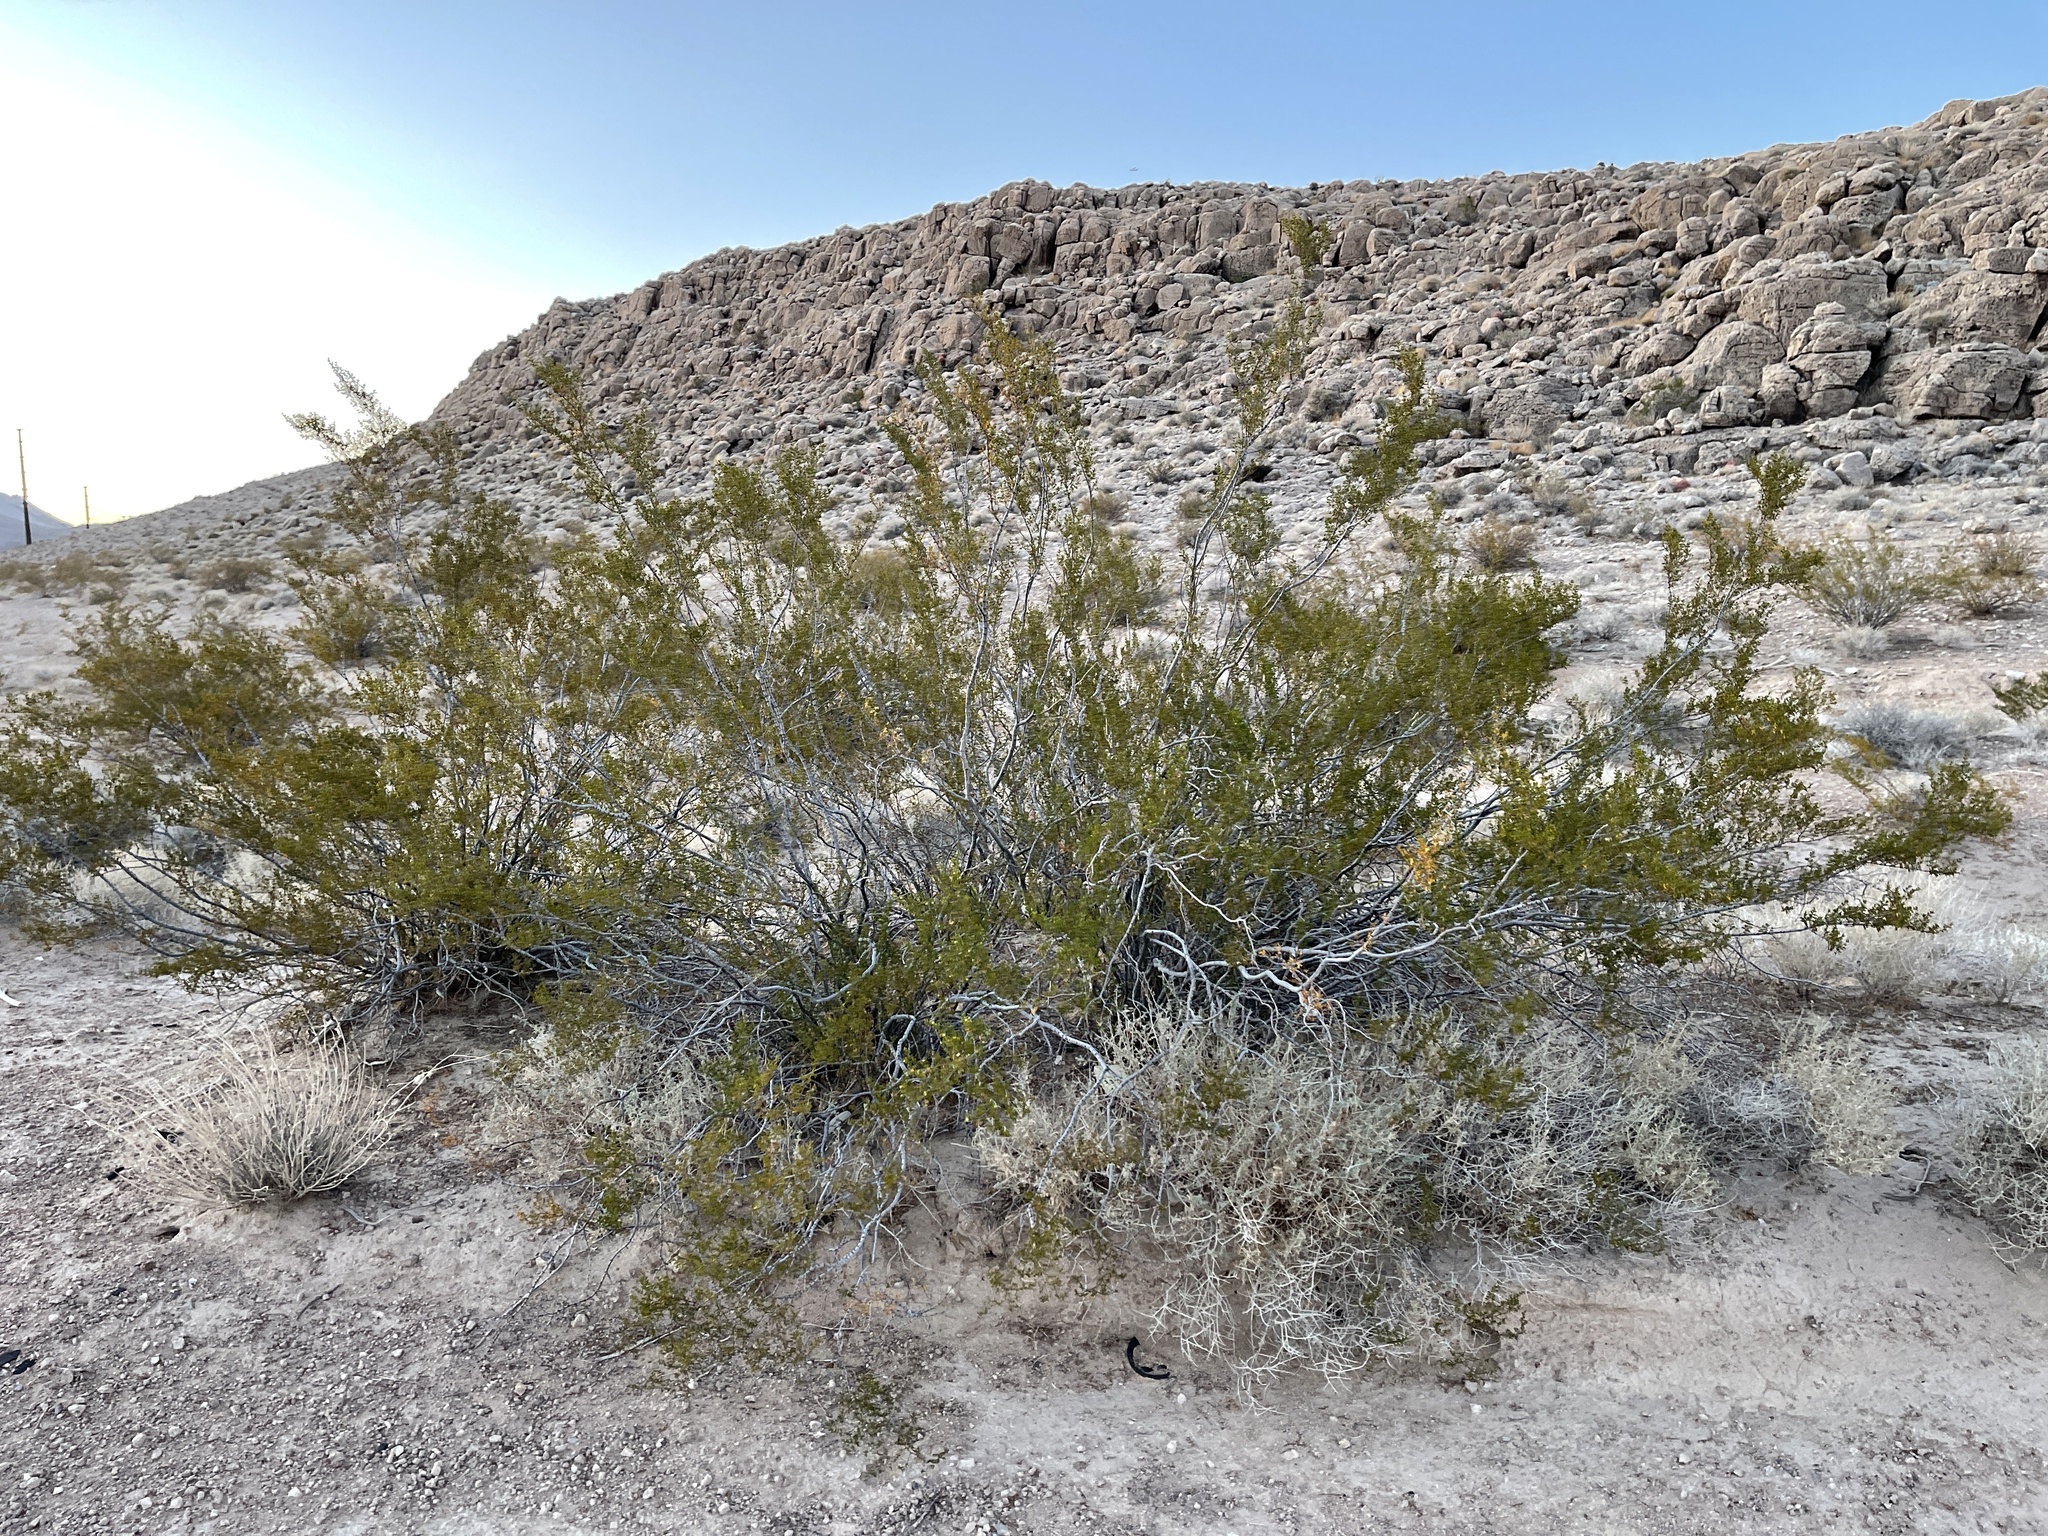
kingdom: Plantae
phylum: Tracheophyta
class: Magnoliopsida
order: Zygophyllales
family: Zygophyllaceae
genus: Larrea
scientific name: Larrea tridentata
